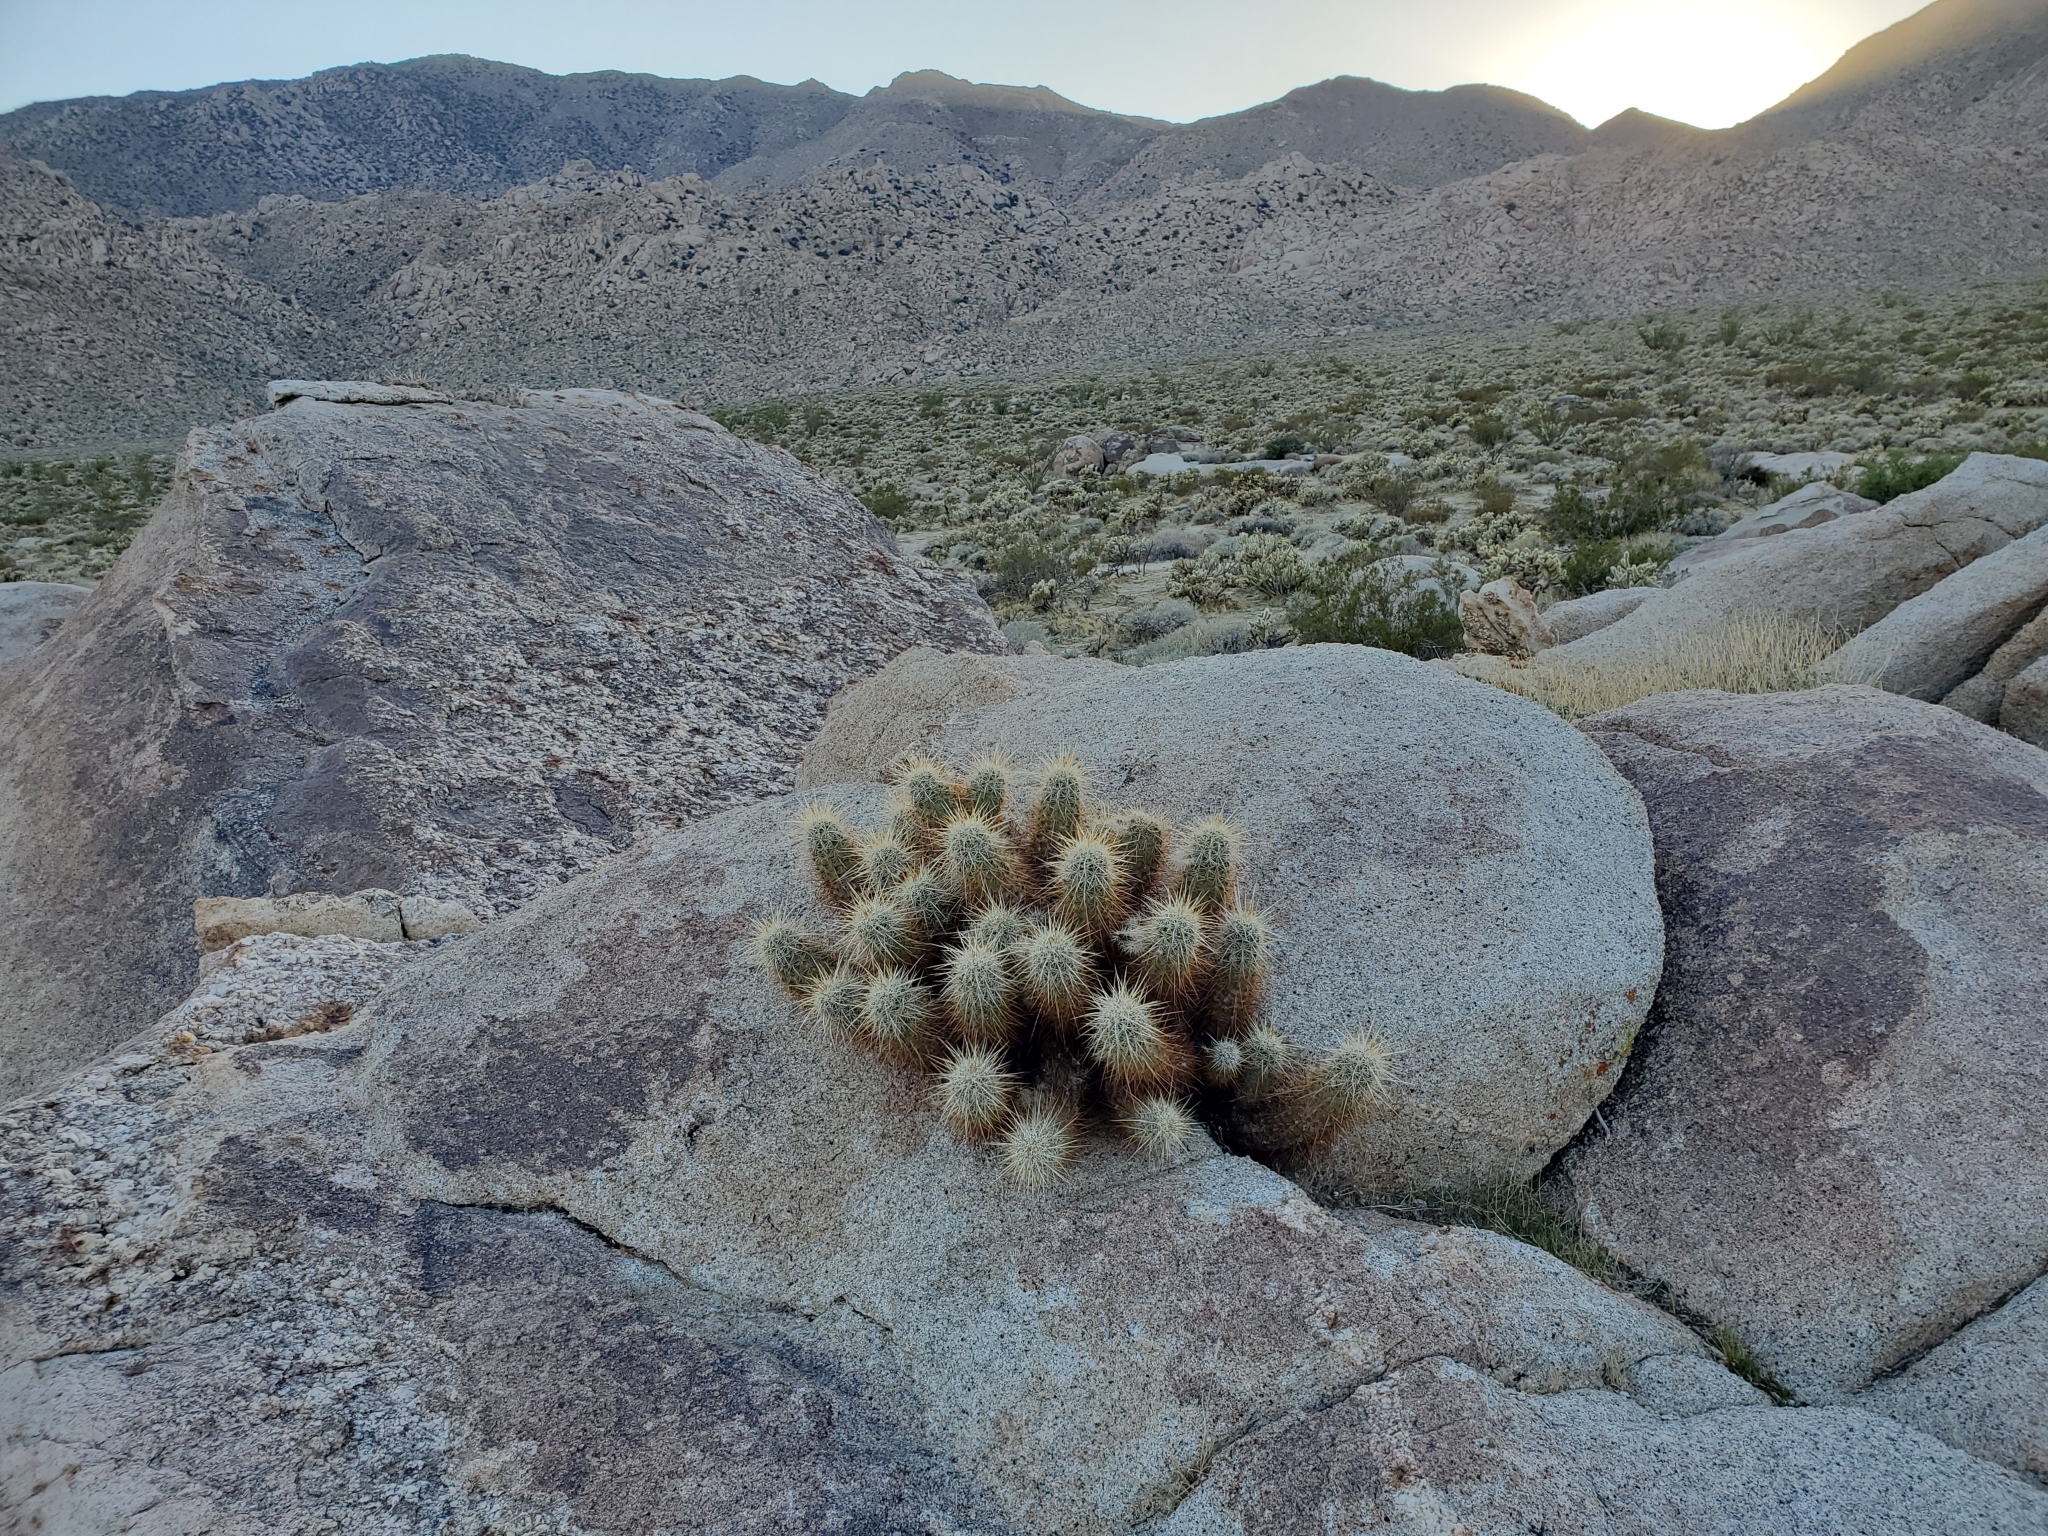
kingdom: Plantae
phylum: Tracheophyta
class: Magnoliopsida
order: Caryophyllales
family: Cactaceae
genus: Echinocereus
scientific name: Echinocereus engelmannii
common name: Engelmann's hedgehog cactus
